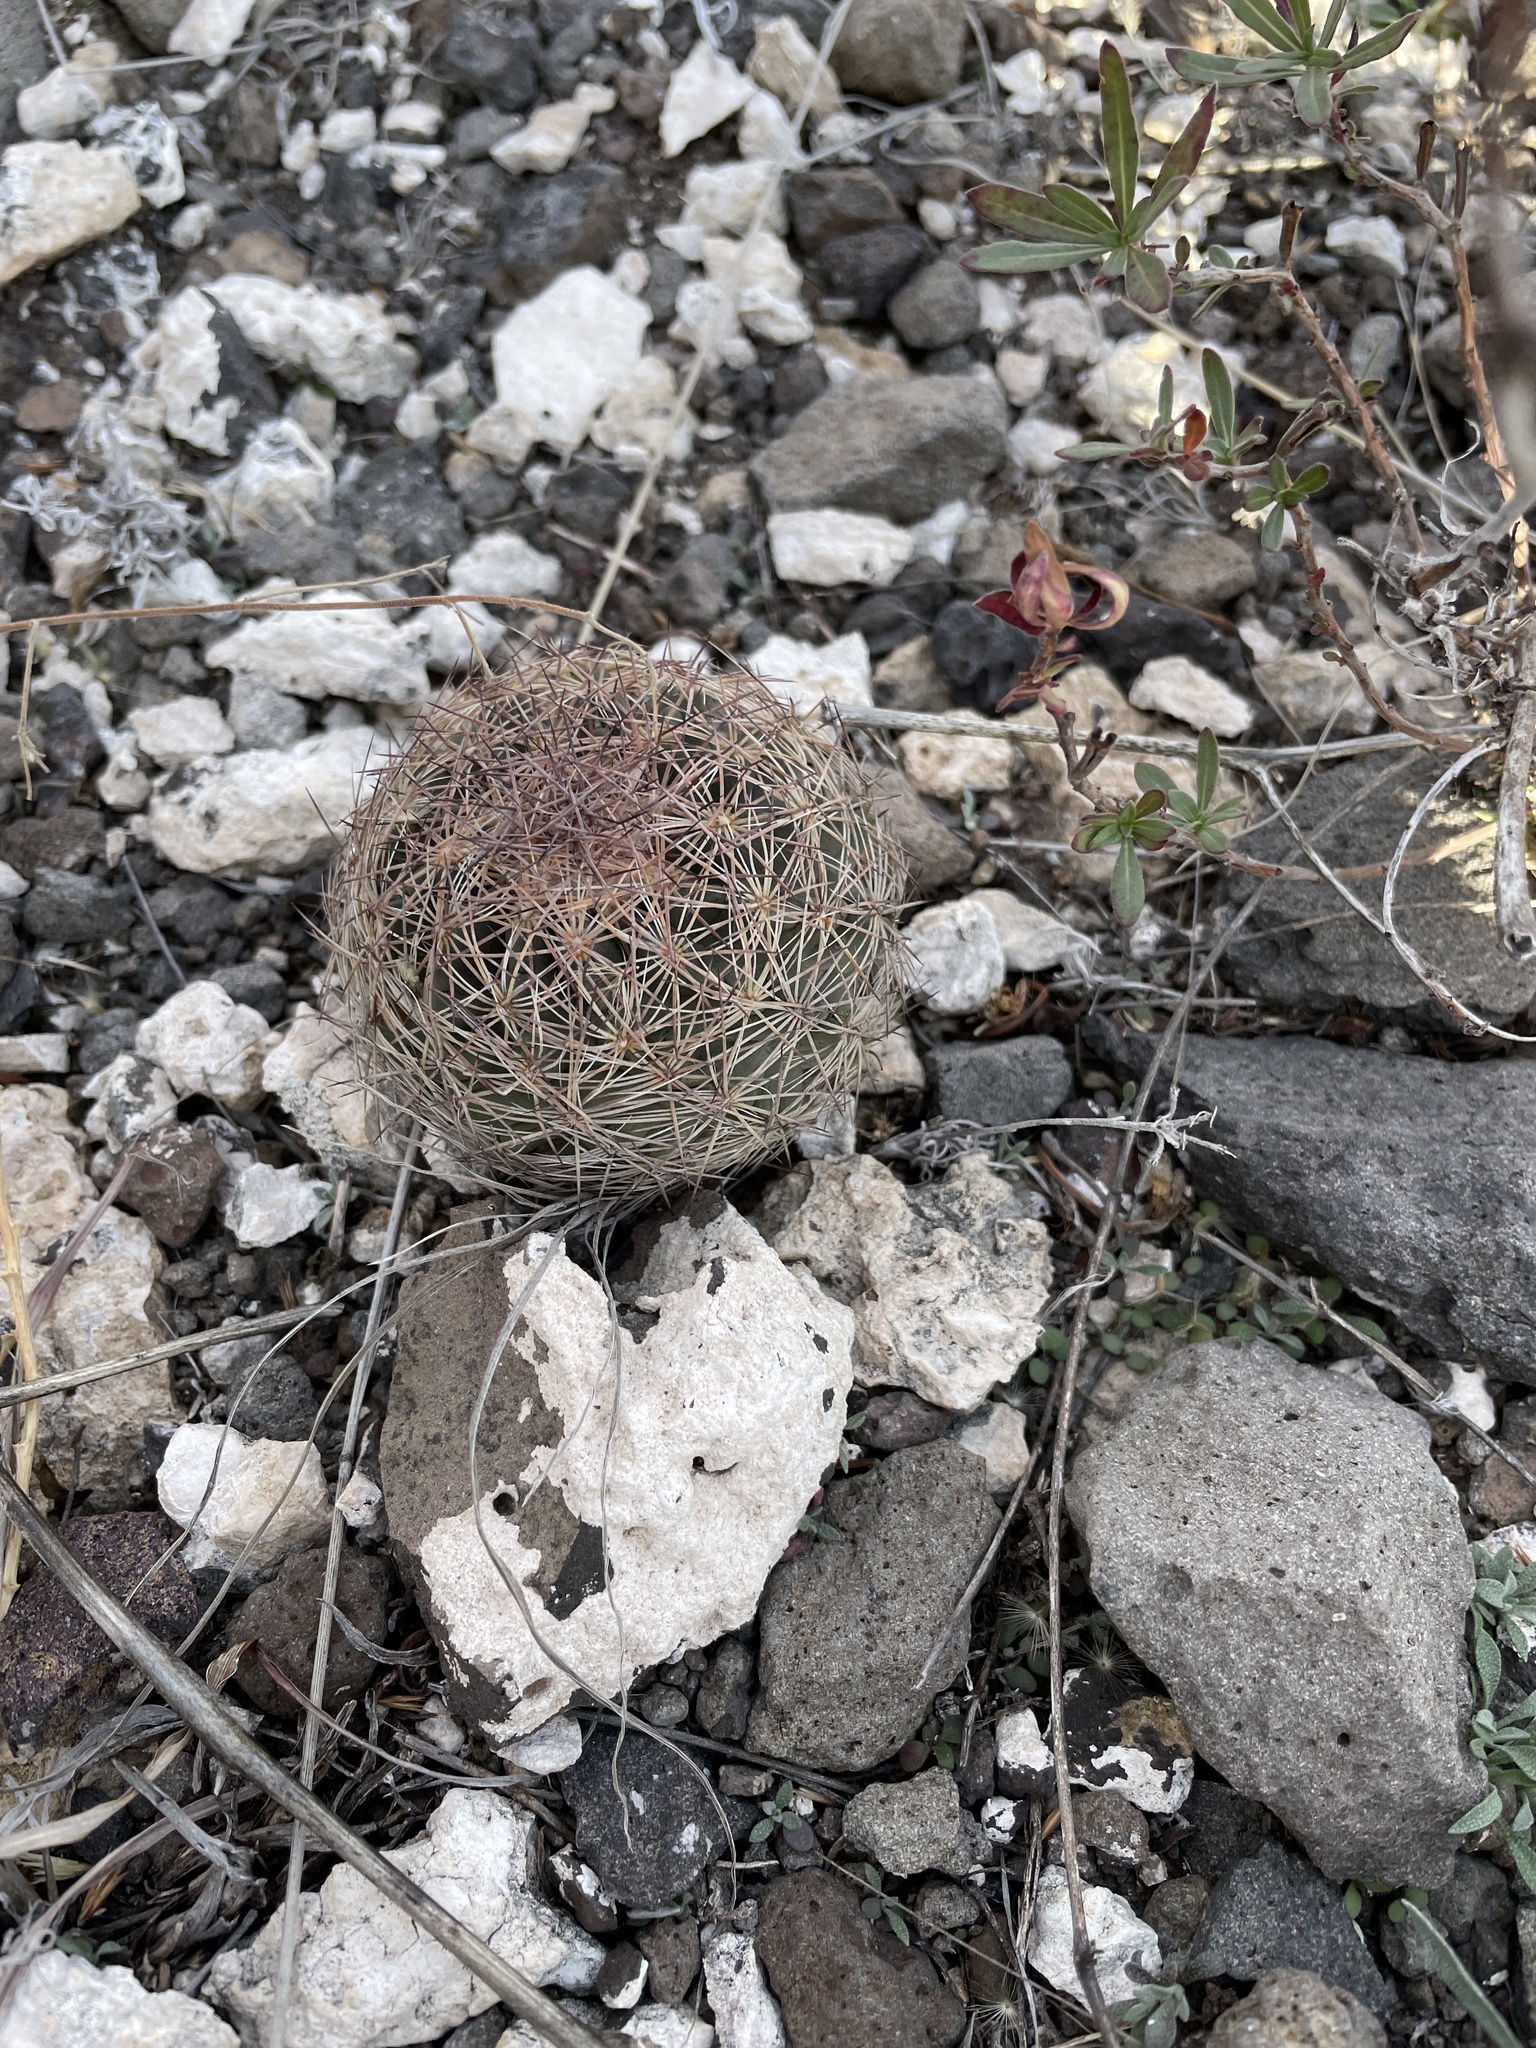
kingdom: Plantae
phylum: Tracheophyta
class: Magnoliopsida
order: Caryophyllales
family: Cactaceae
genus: Sclerocactus
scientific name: Sclerocactus intertextus
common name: White fish-hook cactus
